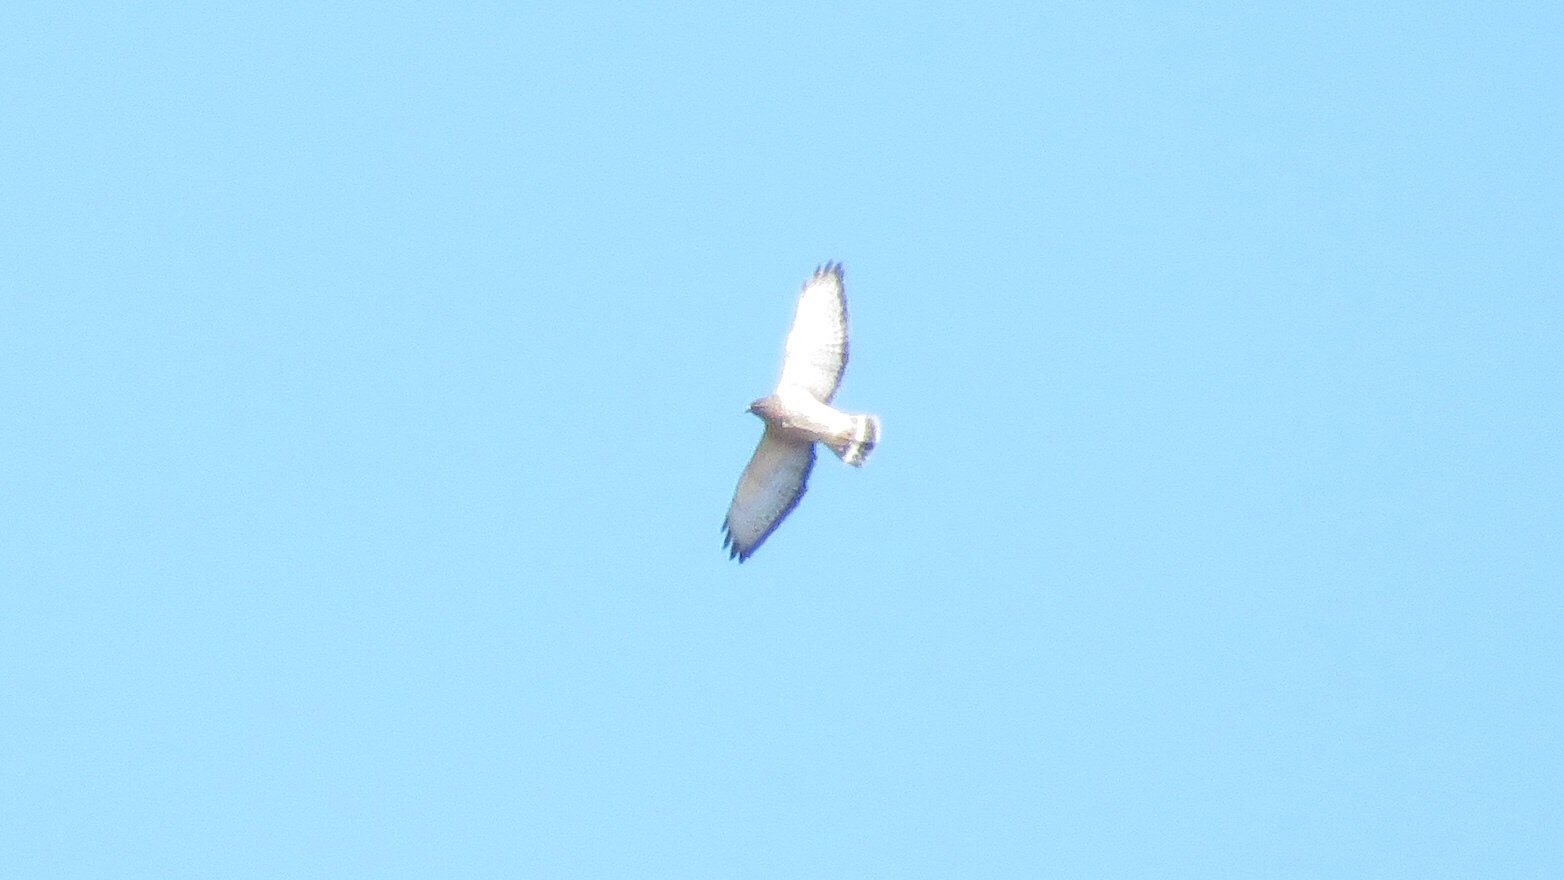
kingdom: Animalia
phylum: Chordata
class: Aves
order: Accipitriformes
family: Accipitridae
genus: Buteo
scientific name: Buteo platypterus
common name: Broad-winged hawk
